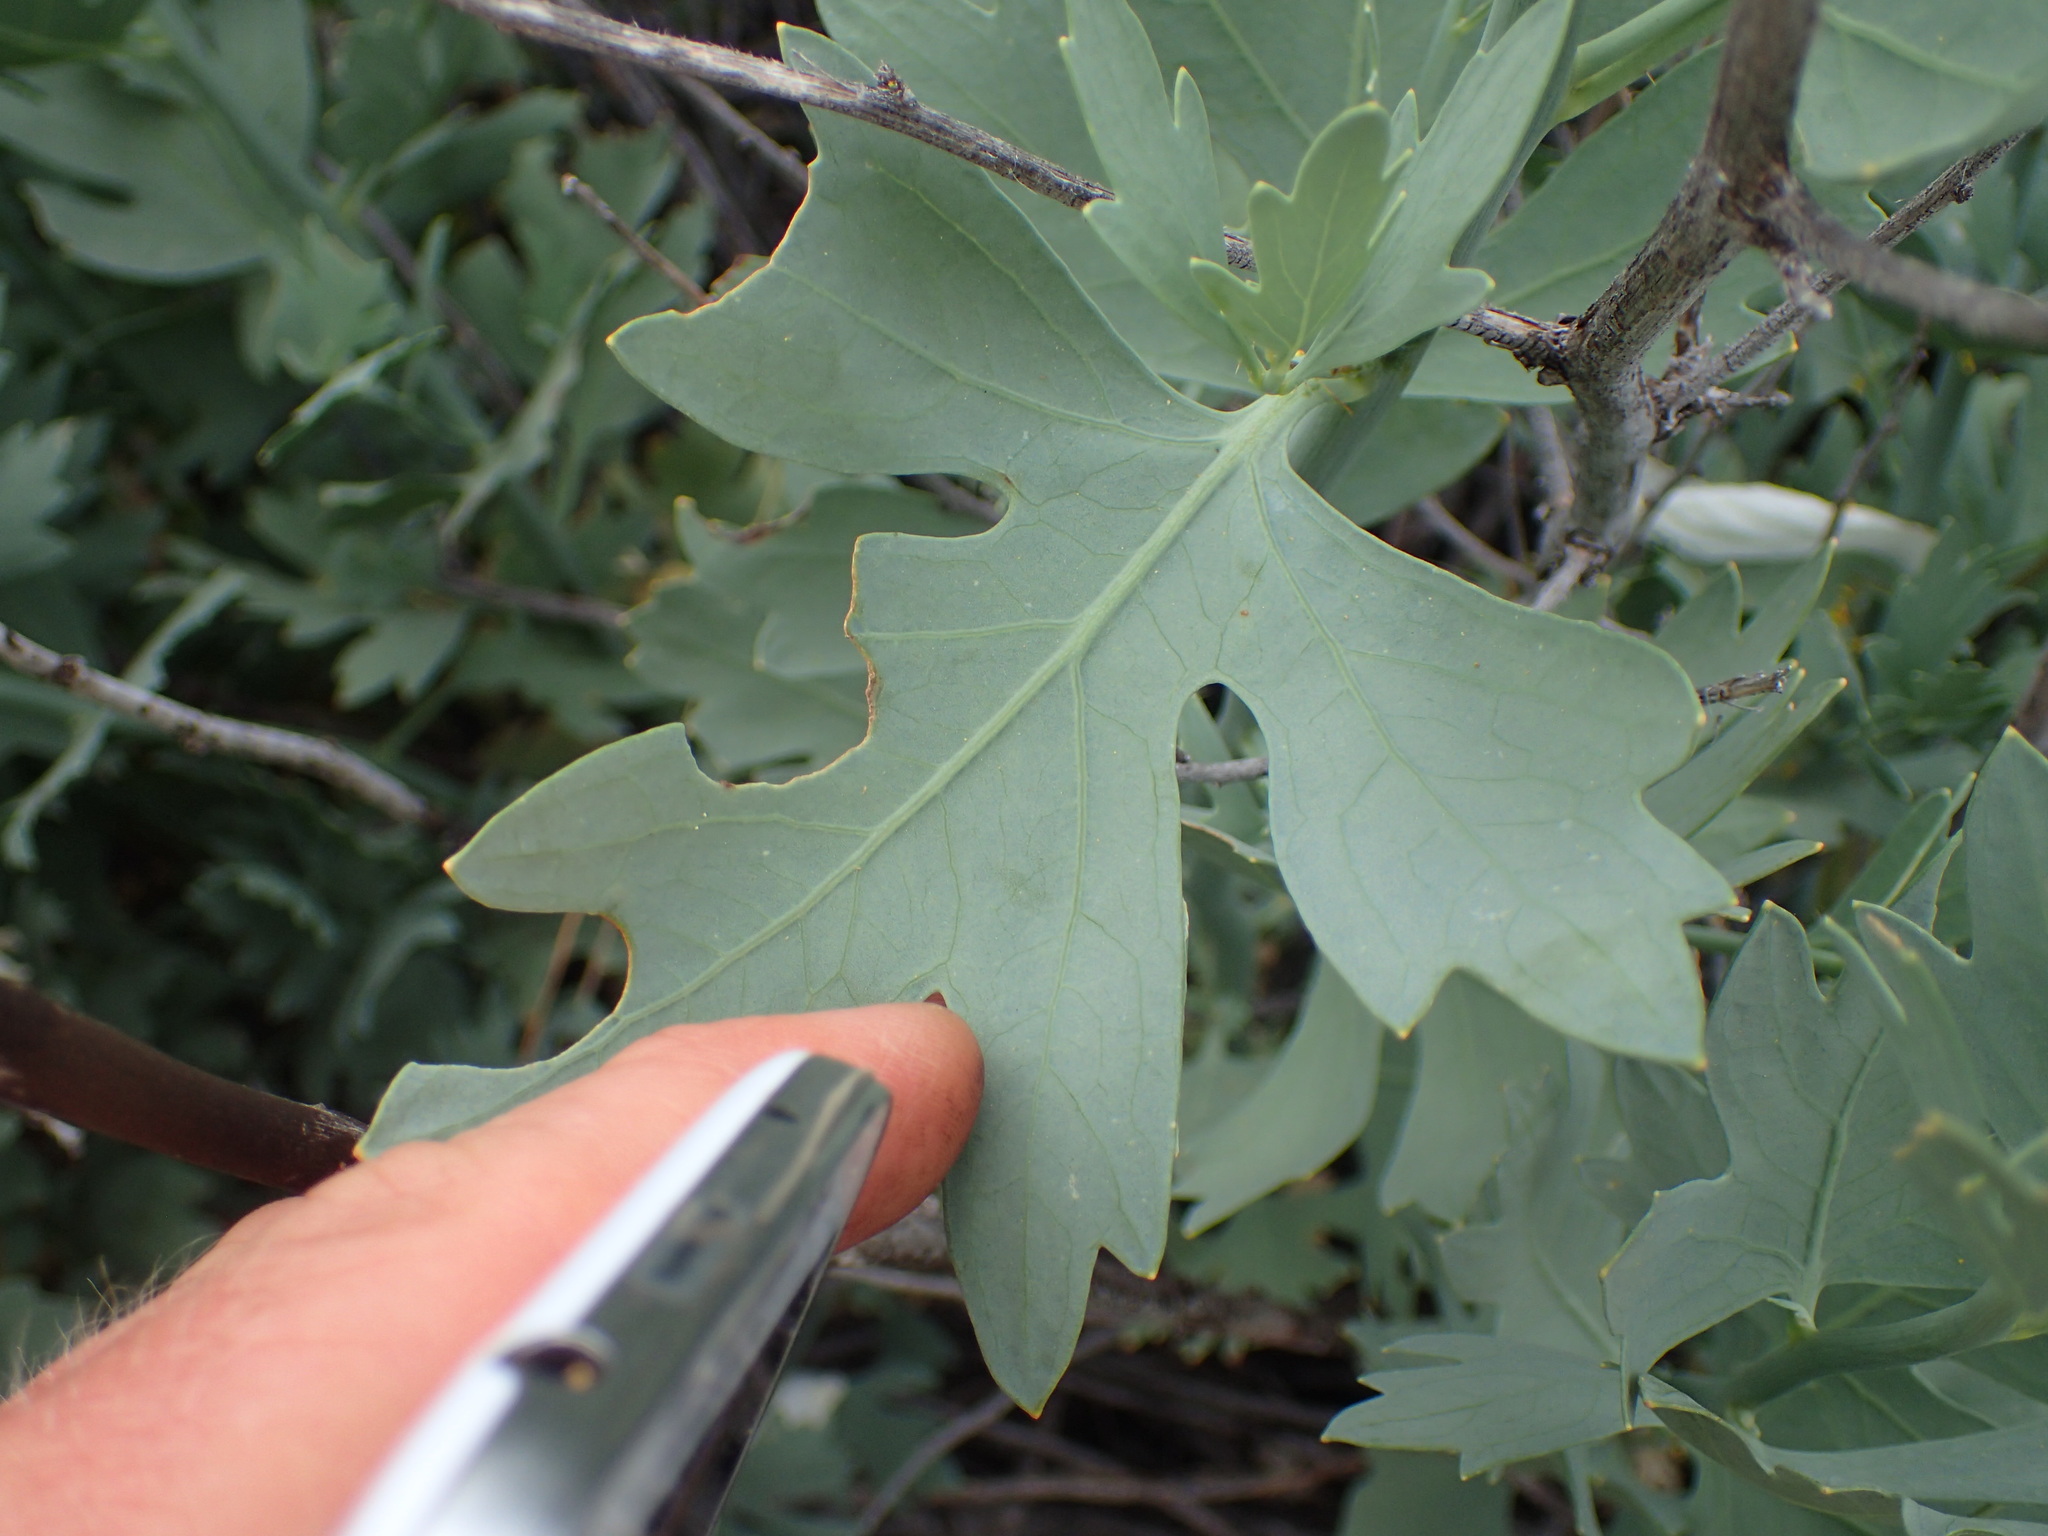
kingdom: Plantae
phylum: Tracheophyta
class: Magnoliopsida
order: Ranunculales
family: Papaveraceae
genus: Romneya
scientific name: Romneya trichocalyx
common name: Hairy matilija-poppy
